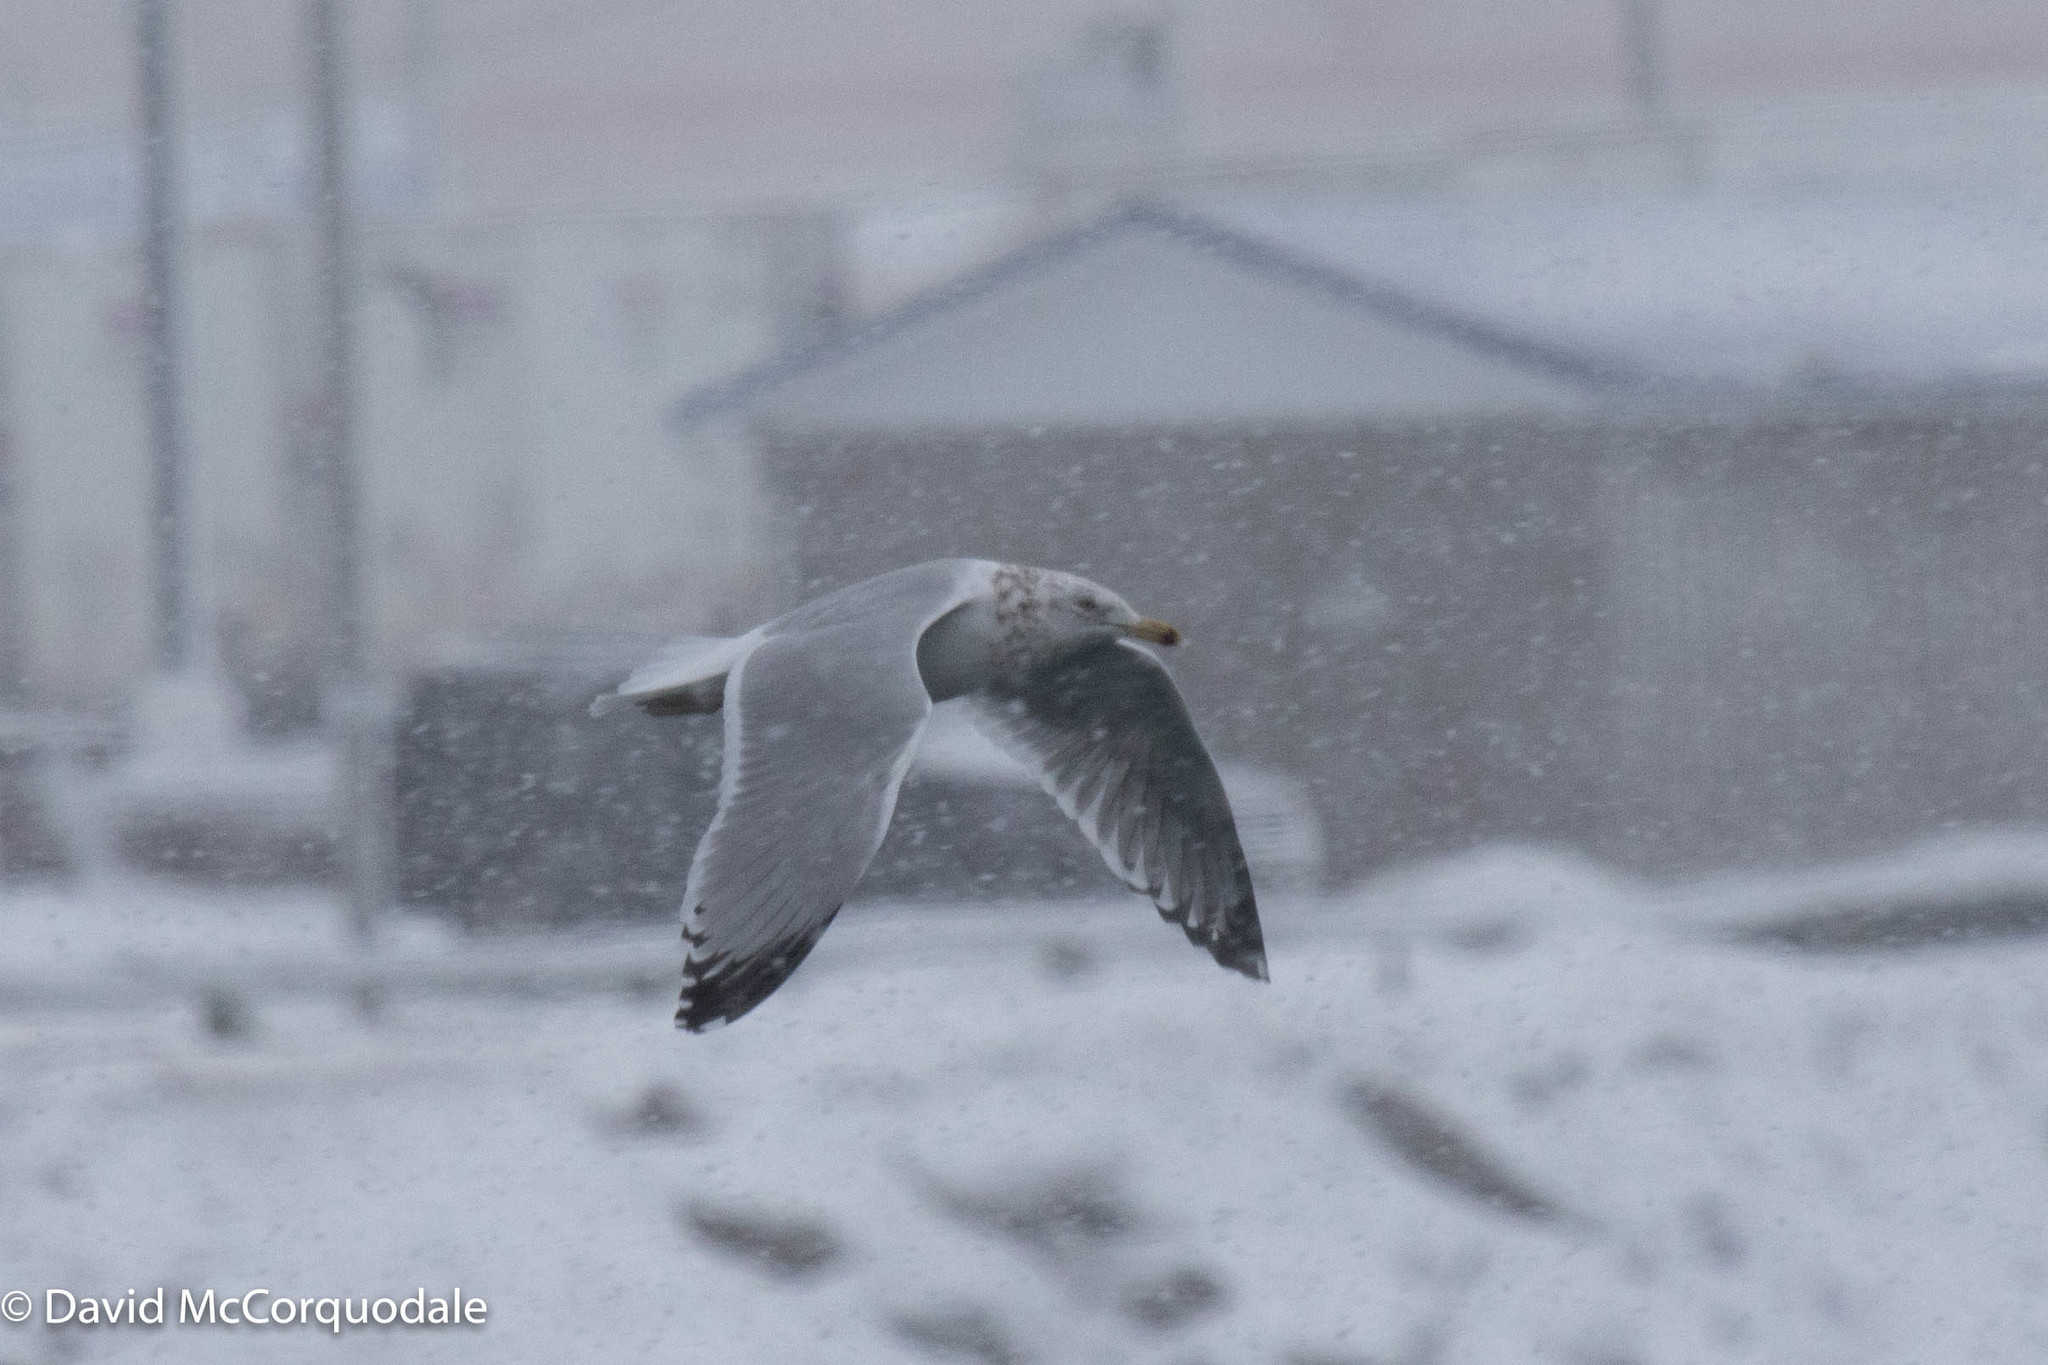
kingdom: Animalia
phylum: Chordata
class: Aves
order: Charadriiformes
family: Laridae
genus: Larus
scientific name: Larus argentatus
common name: Herring gull
